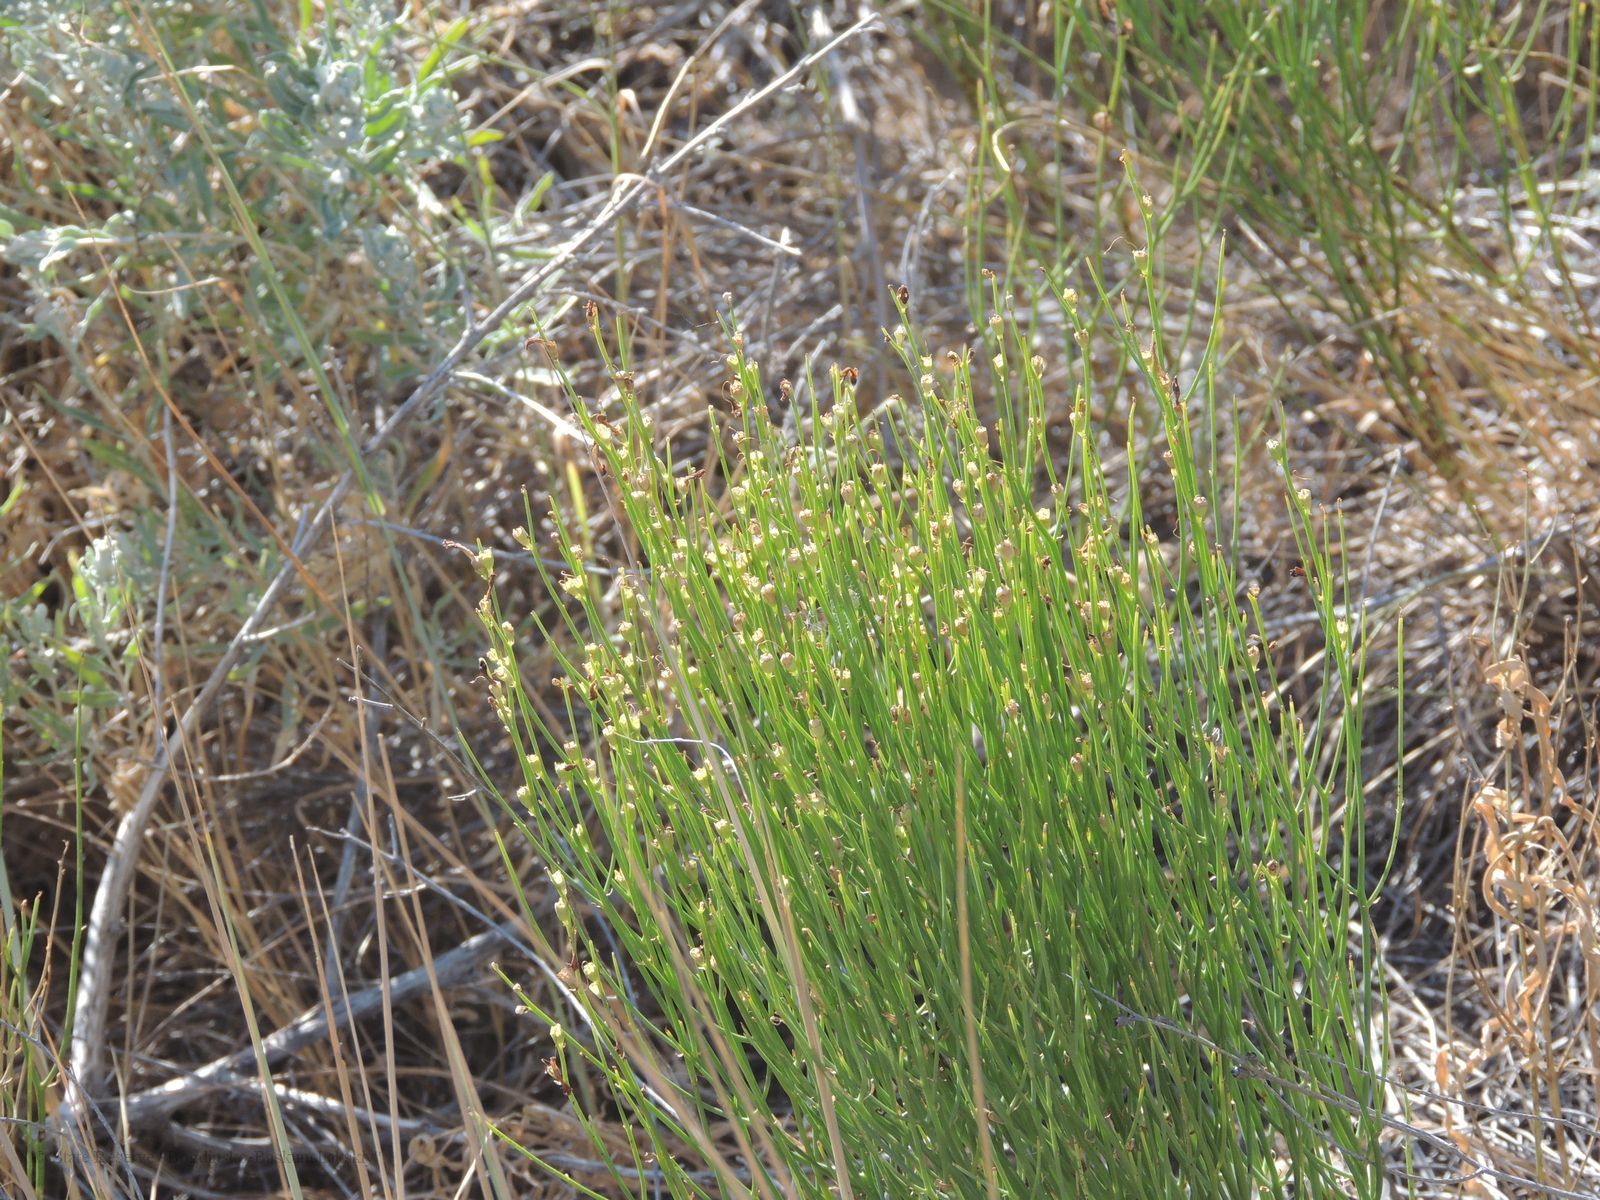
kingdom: Plantae
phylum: Tracheophyta
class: Magnoliopsida
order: Lamiales
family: Mazaceae
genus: Dodartia
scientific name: Dodartia orientalis
